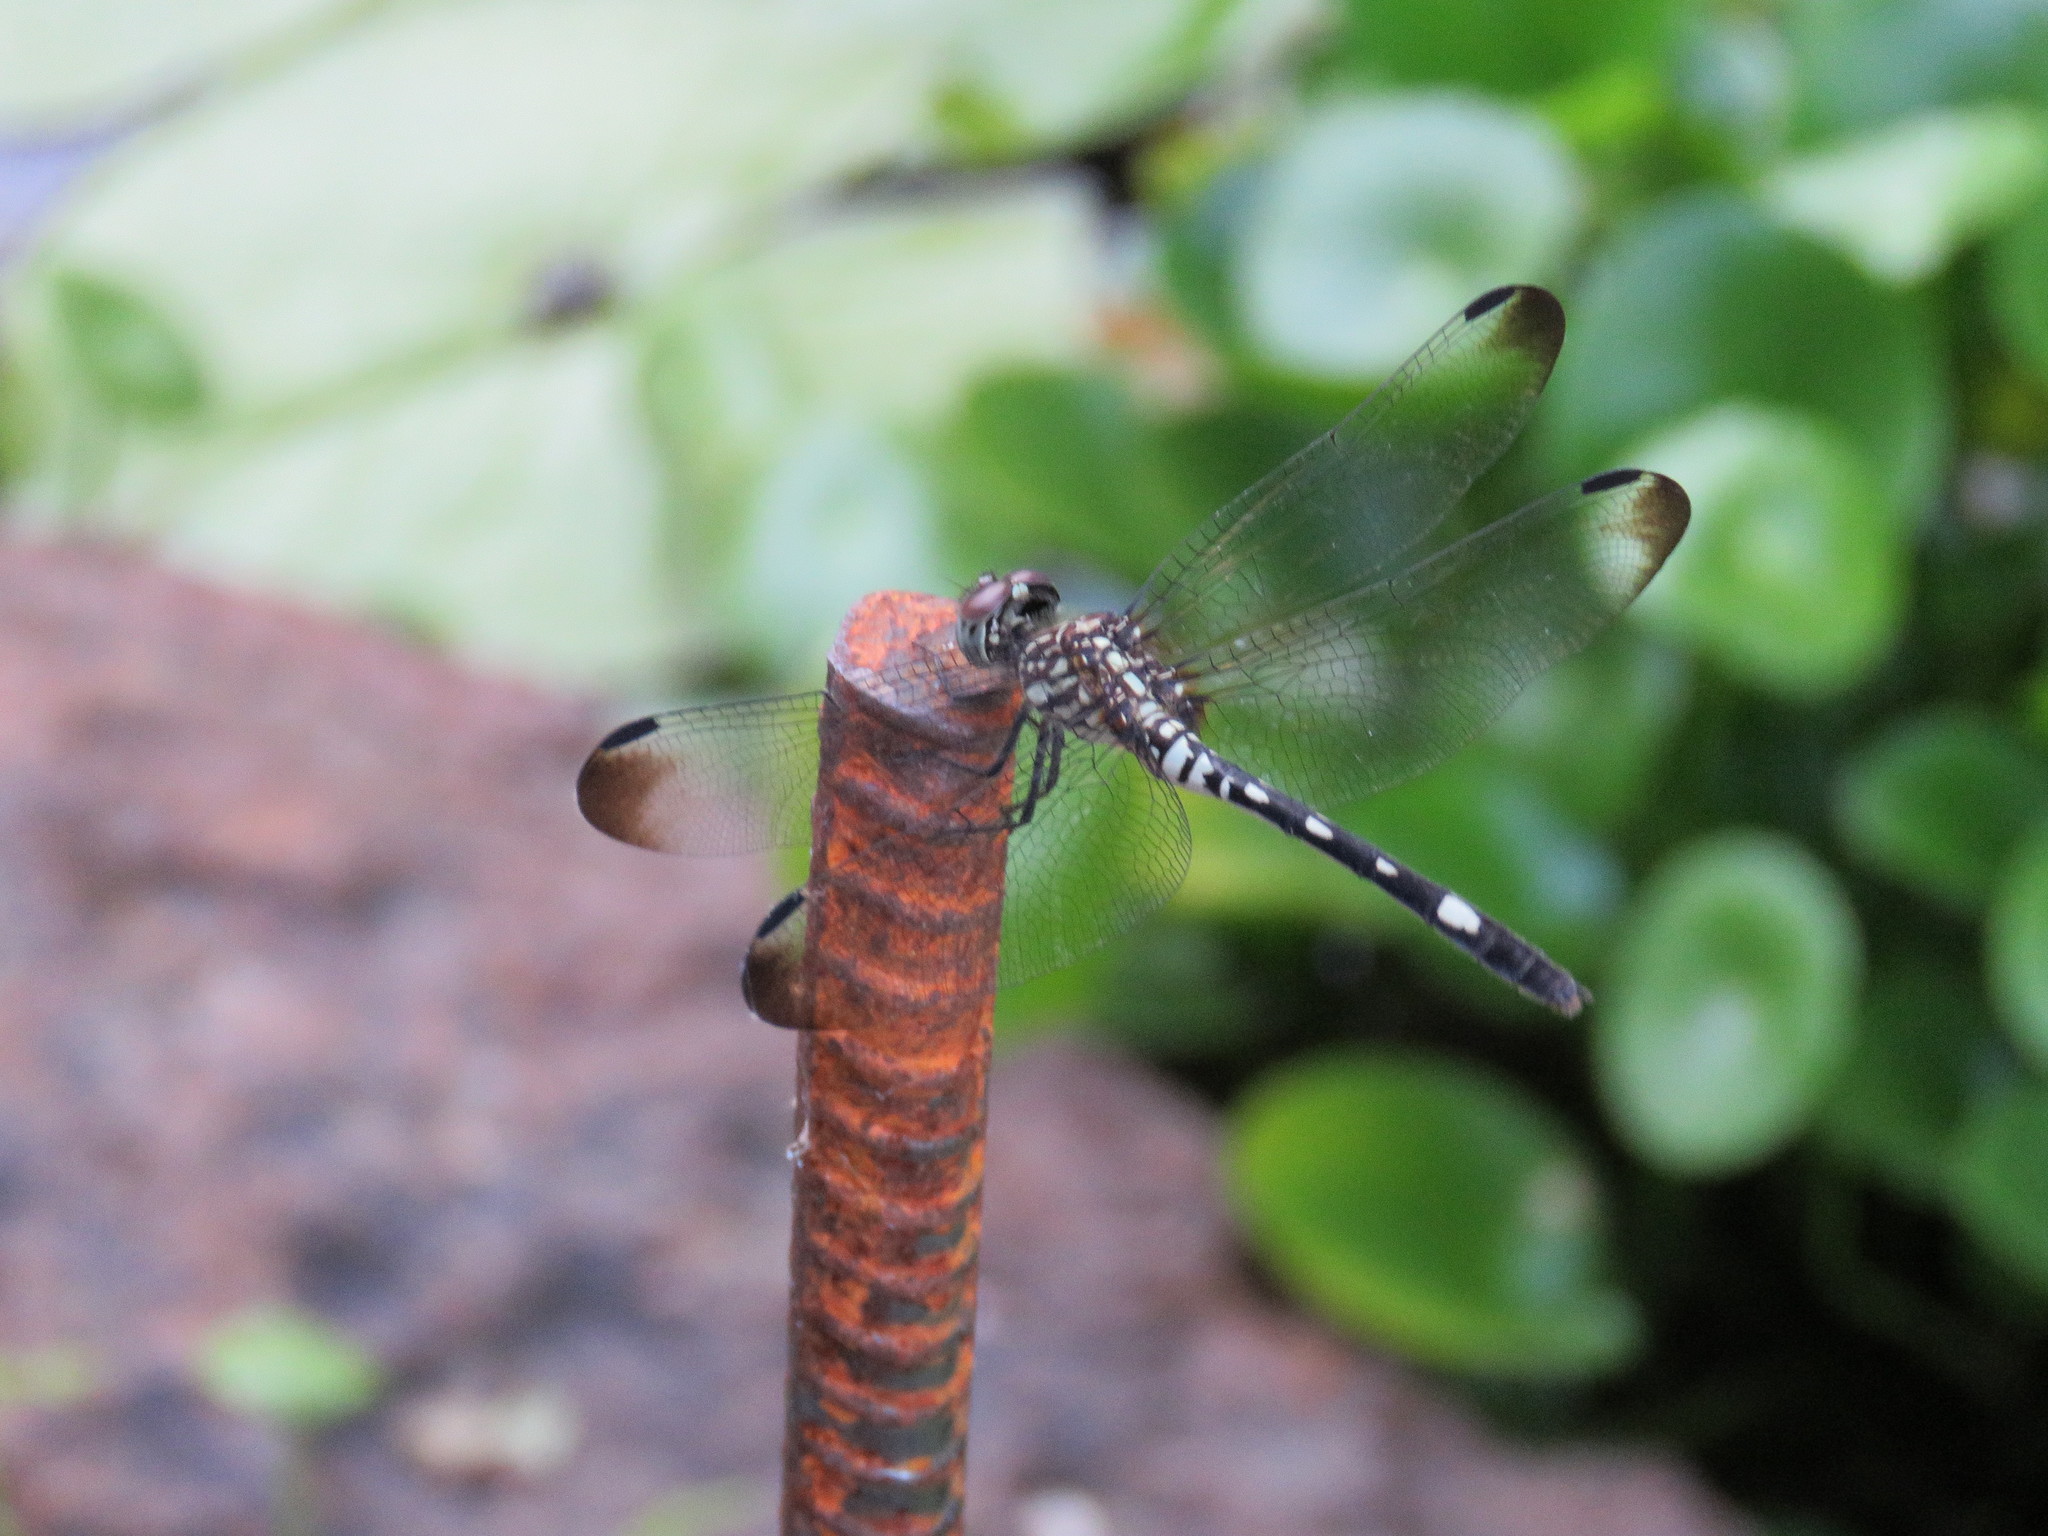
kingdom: Animalia
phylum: Arthropoda
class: Insecta
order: Odonata
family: Libellulidae
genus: Dythemis
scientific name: Dythemis velox
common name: Swift setwing
